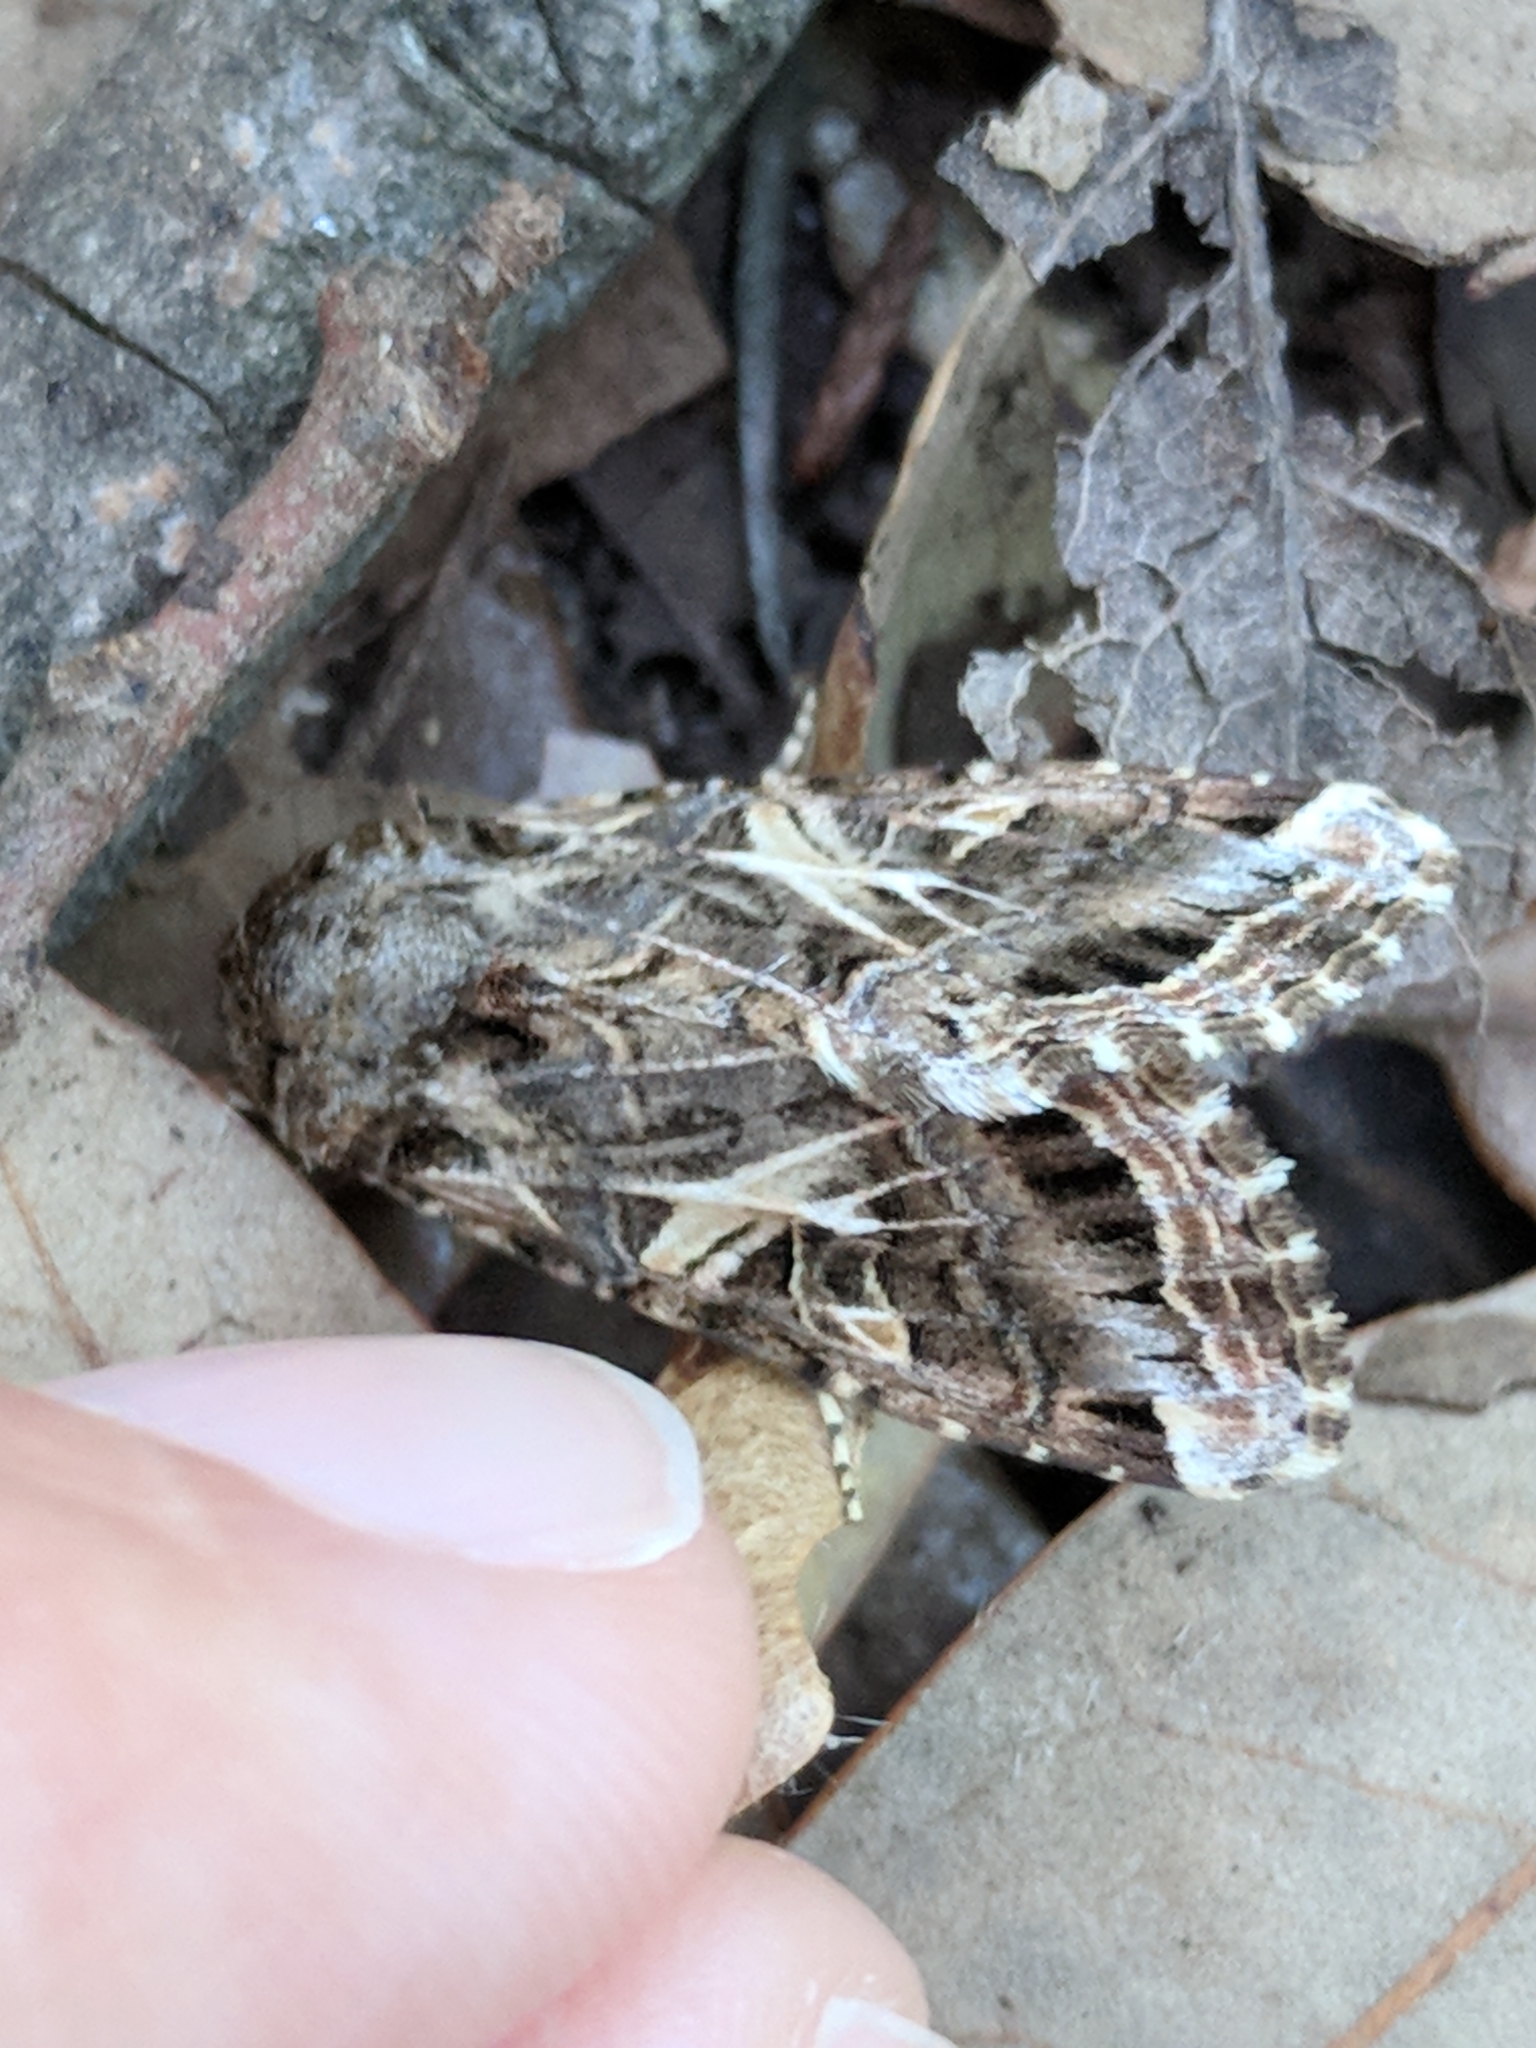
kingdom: Animalia
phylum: Arthropoda
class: Insecta
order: Lepidoptera
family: Noctuidae
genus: Spodoptera
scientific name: Spodoptera ornithogalli
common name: Yellow-striped armyworm
